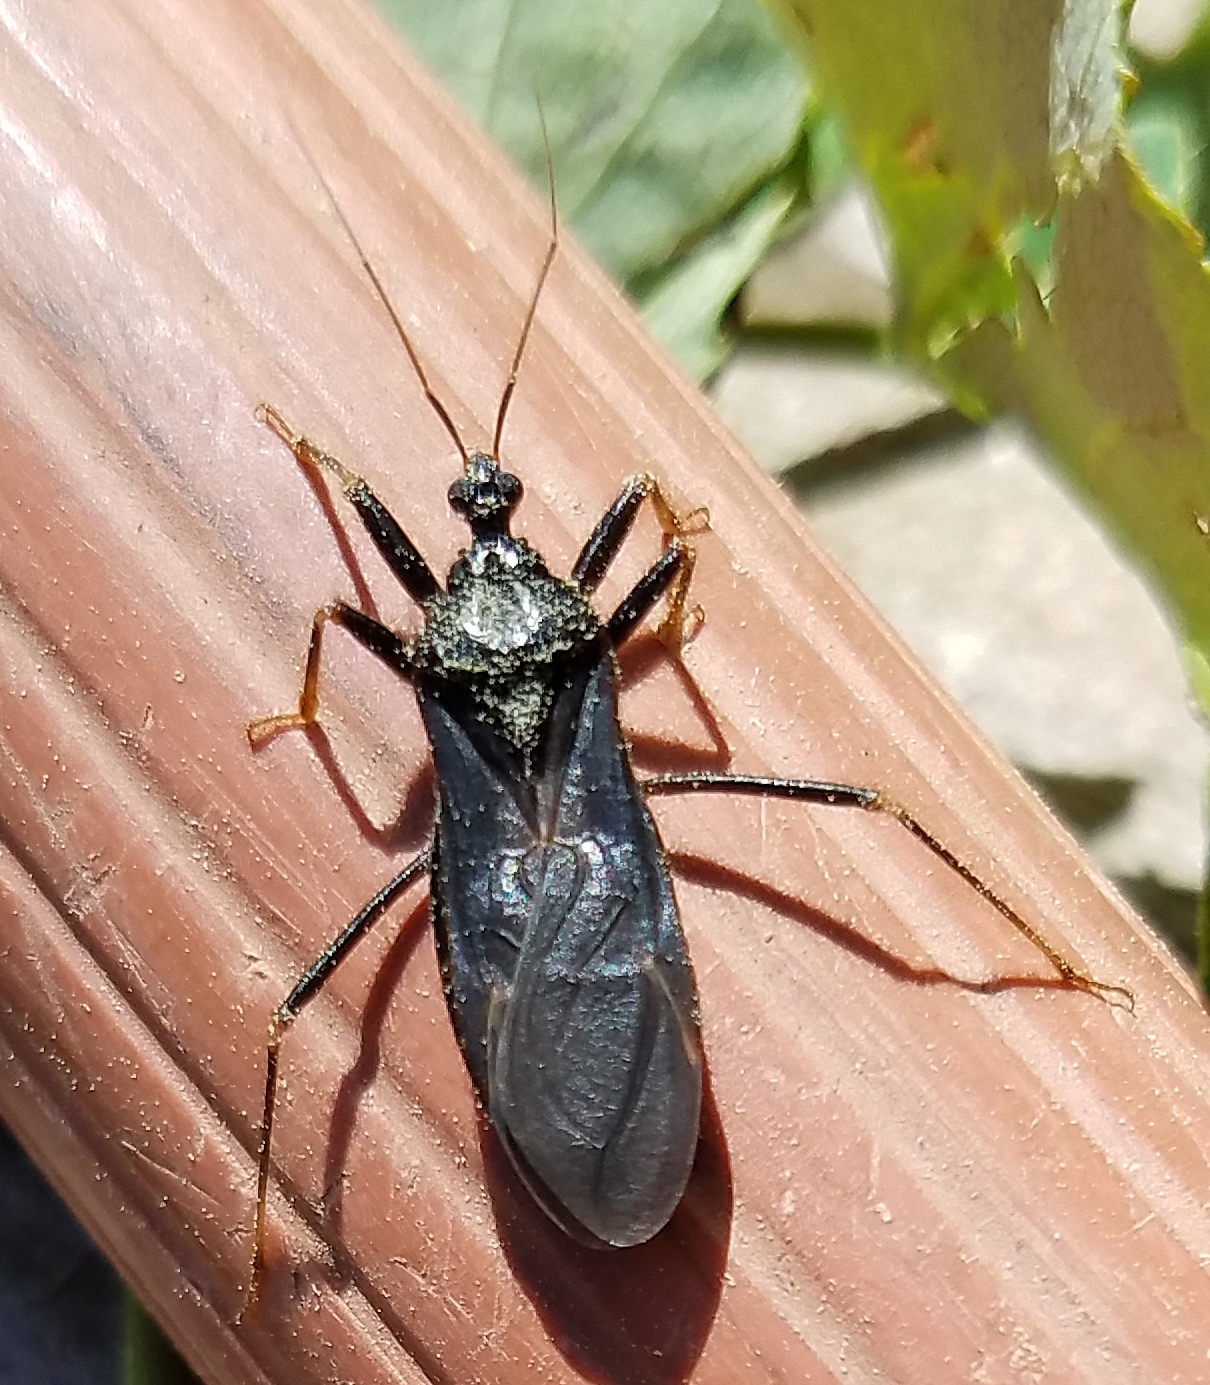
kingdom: Animalia
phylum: Arthropoda
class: Insecta
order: Hemiptera
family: Reduviidae
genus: Reduvius
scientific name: Reduvius personatus
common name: Masked hunter
